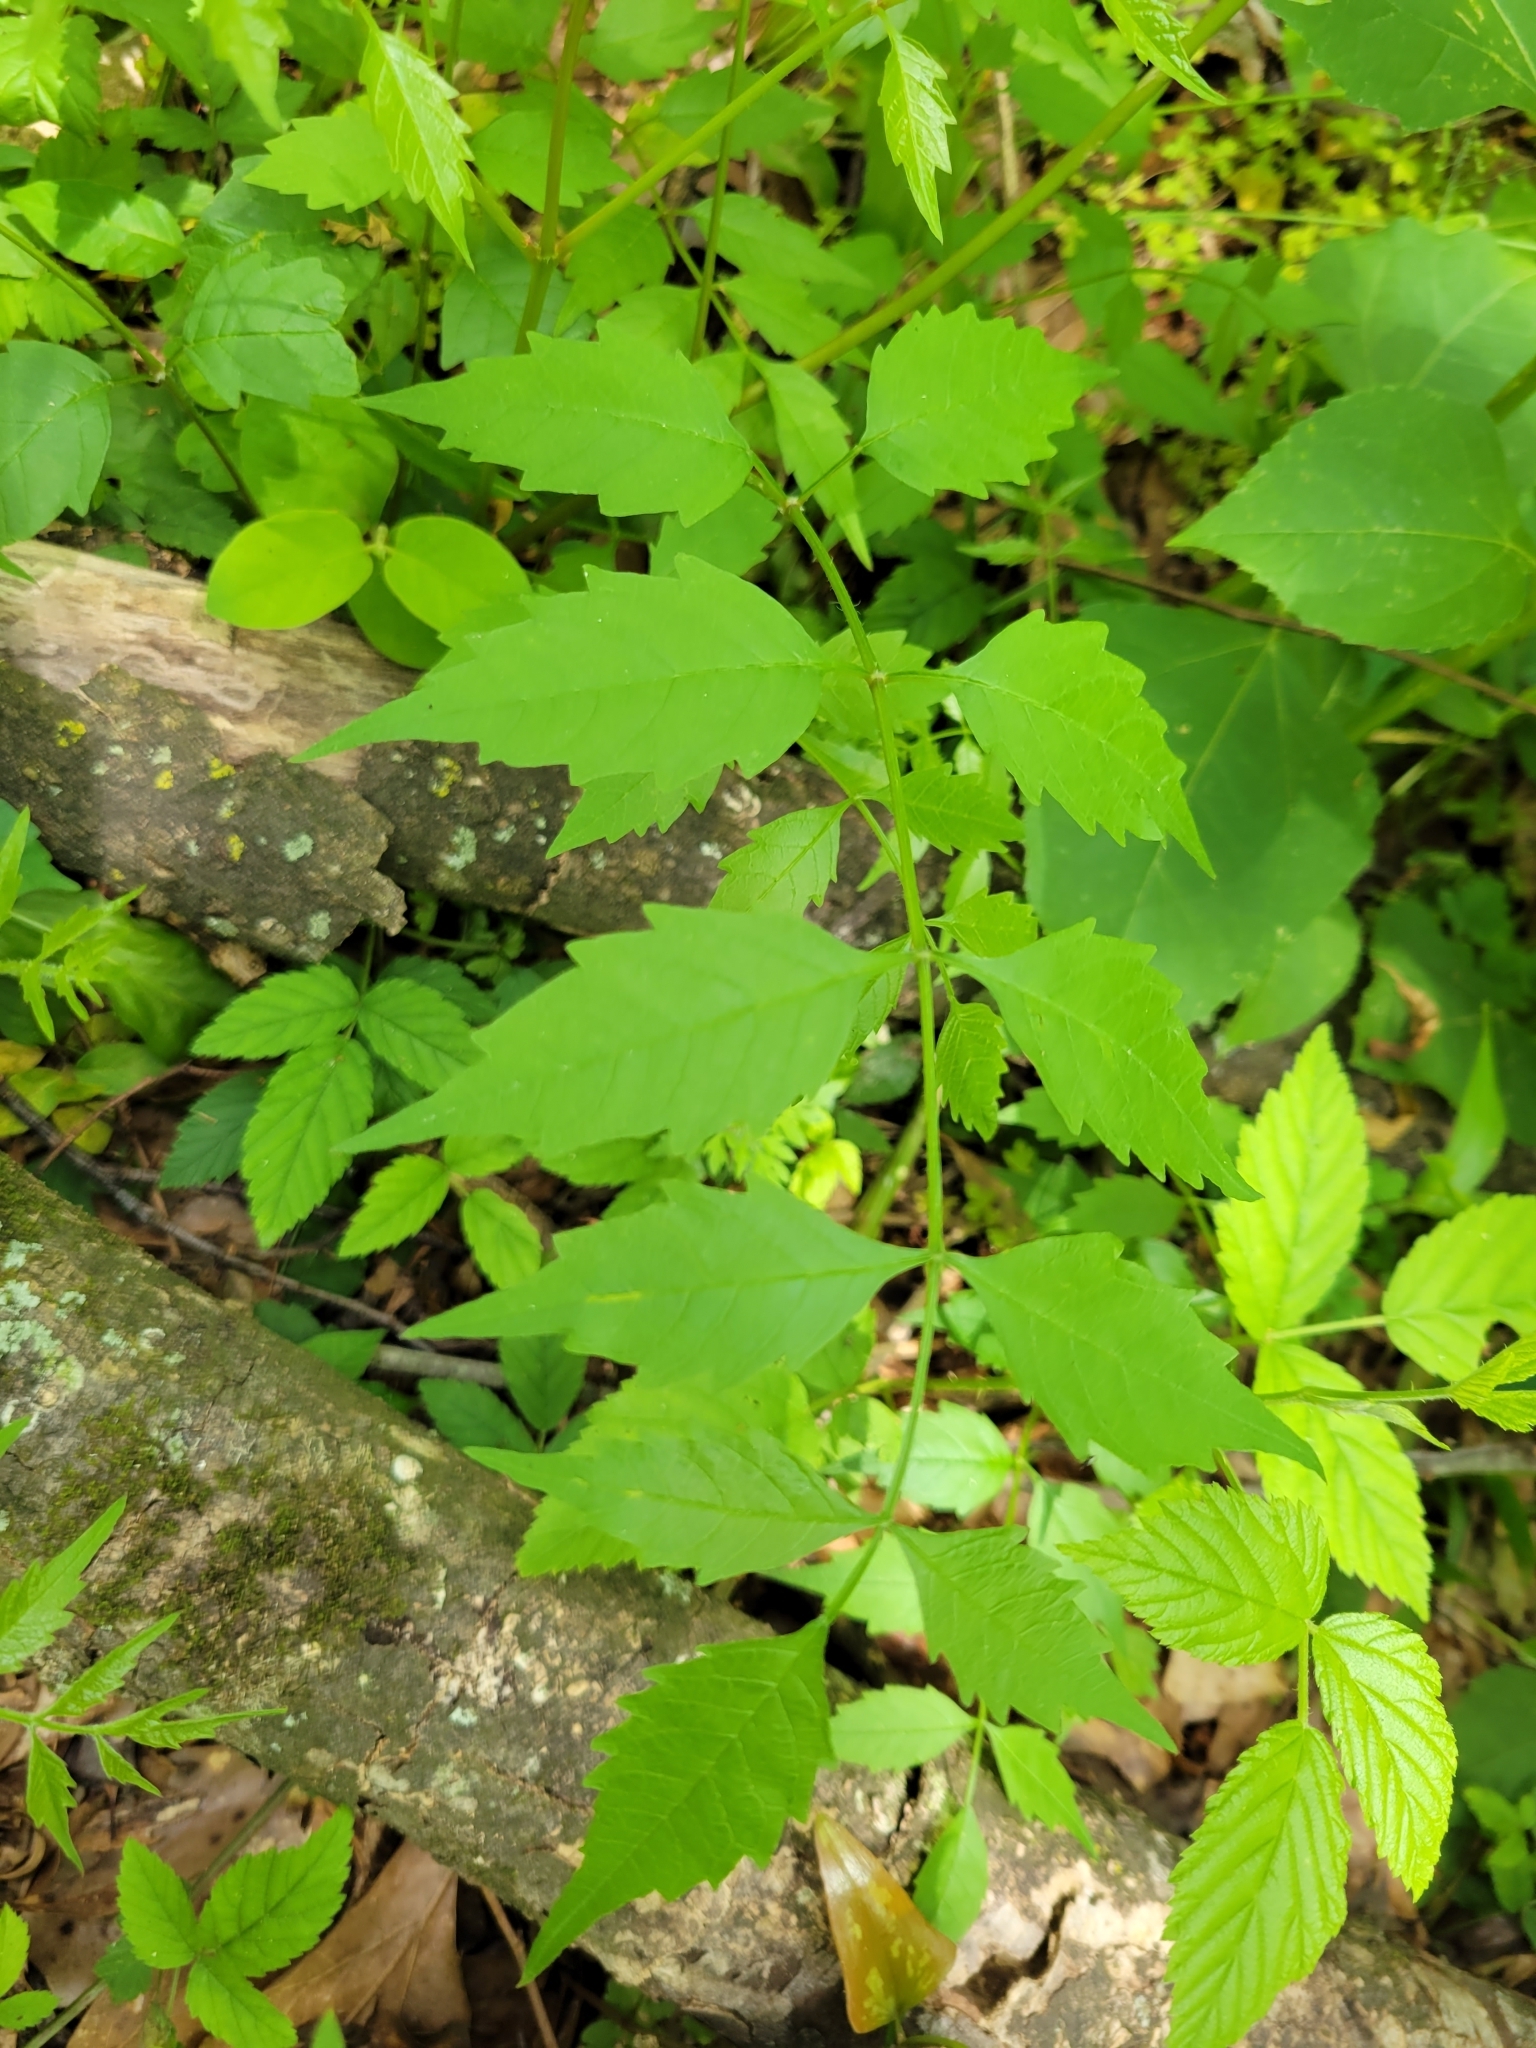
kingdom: Plantae
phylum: Tracheophyta
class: Magnoliopsida
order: Lamiales
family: Bignoniaceae
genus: Campsis
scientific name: Campsis radicans
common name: Trumpet-creeper
